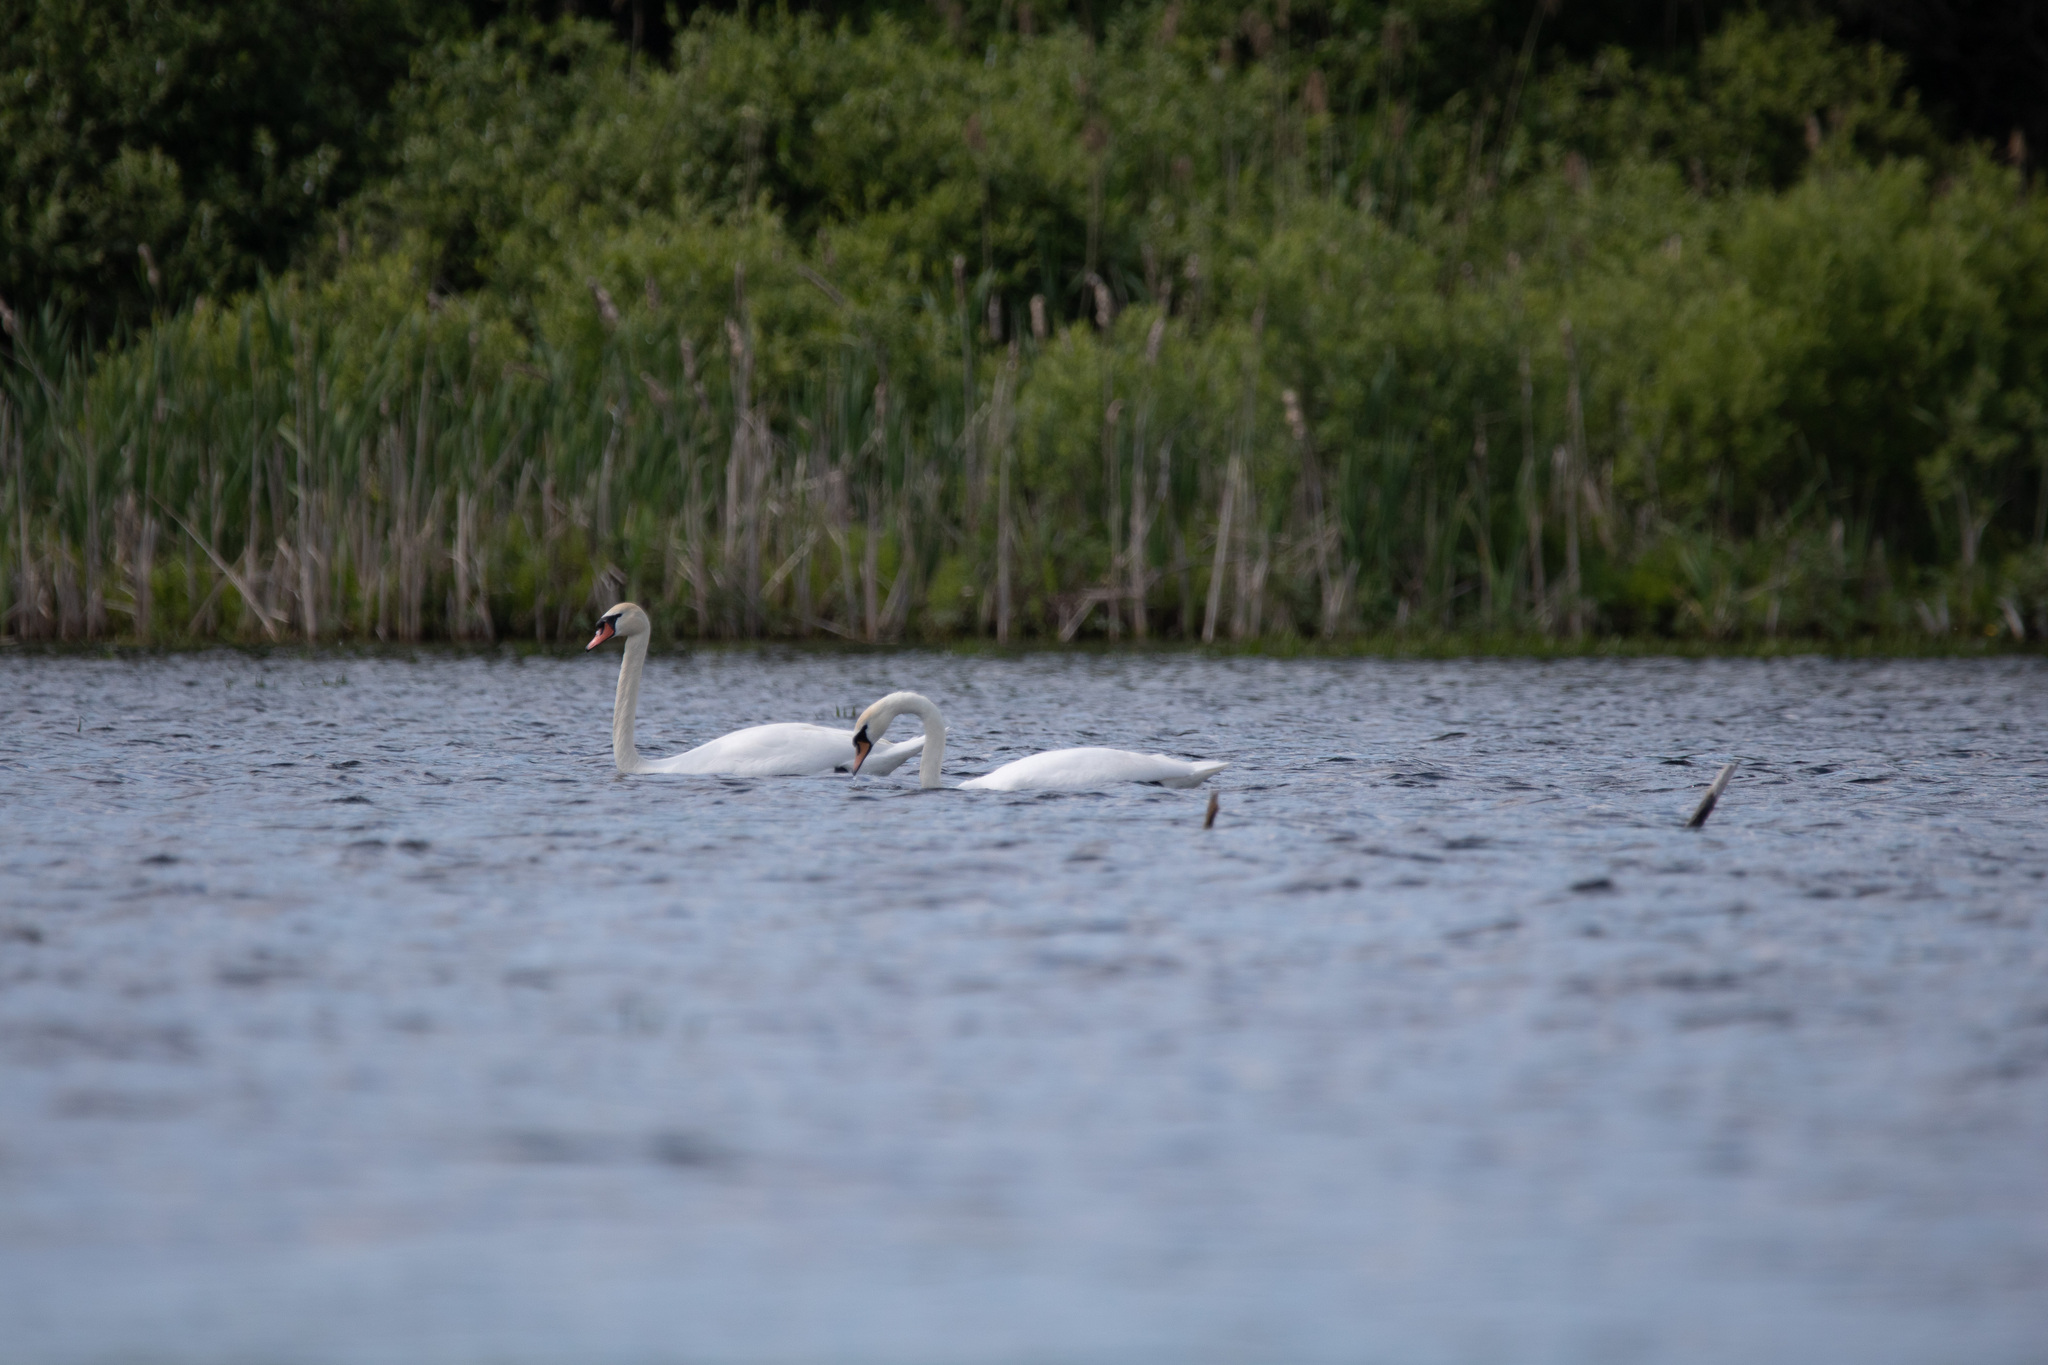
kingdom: Animalia
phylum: Chordata
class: Aves
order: Anseriformes
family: Anatidae
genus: Cygnus
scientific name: Cygnus olor
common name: Mute swan
